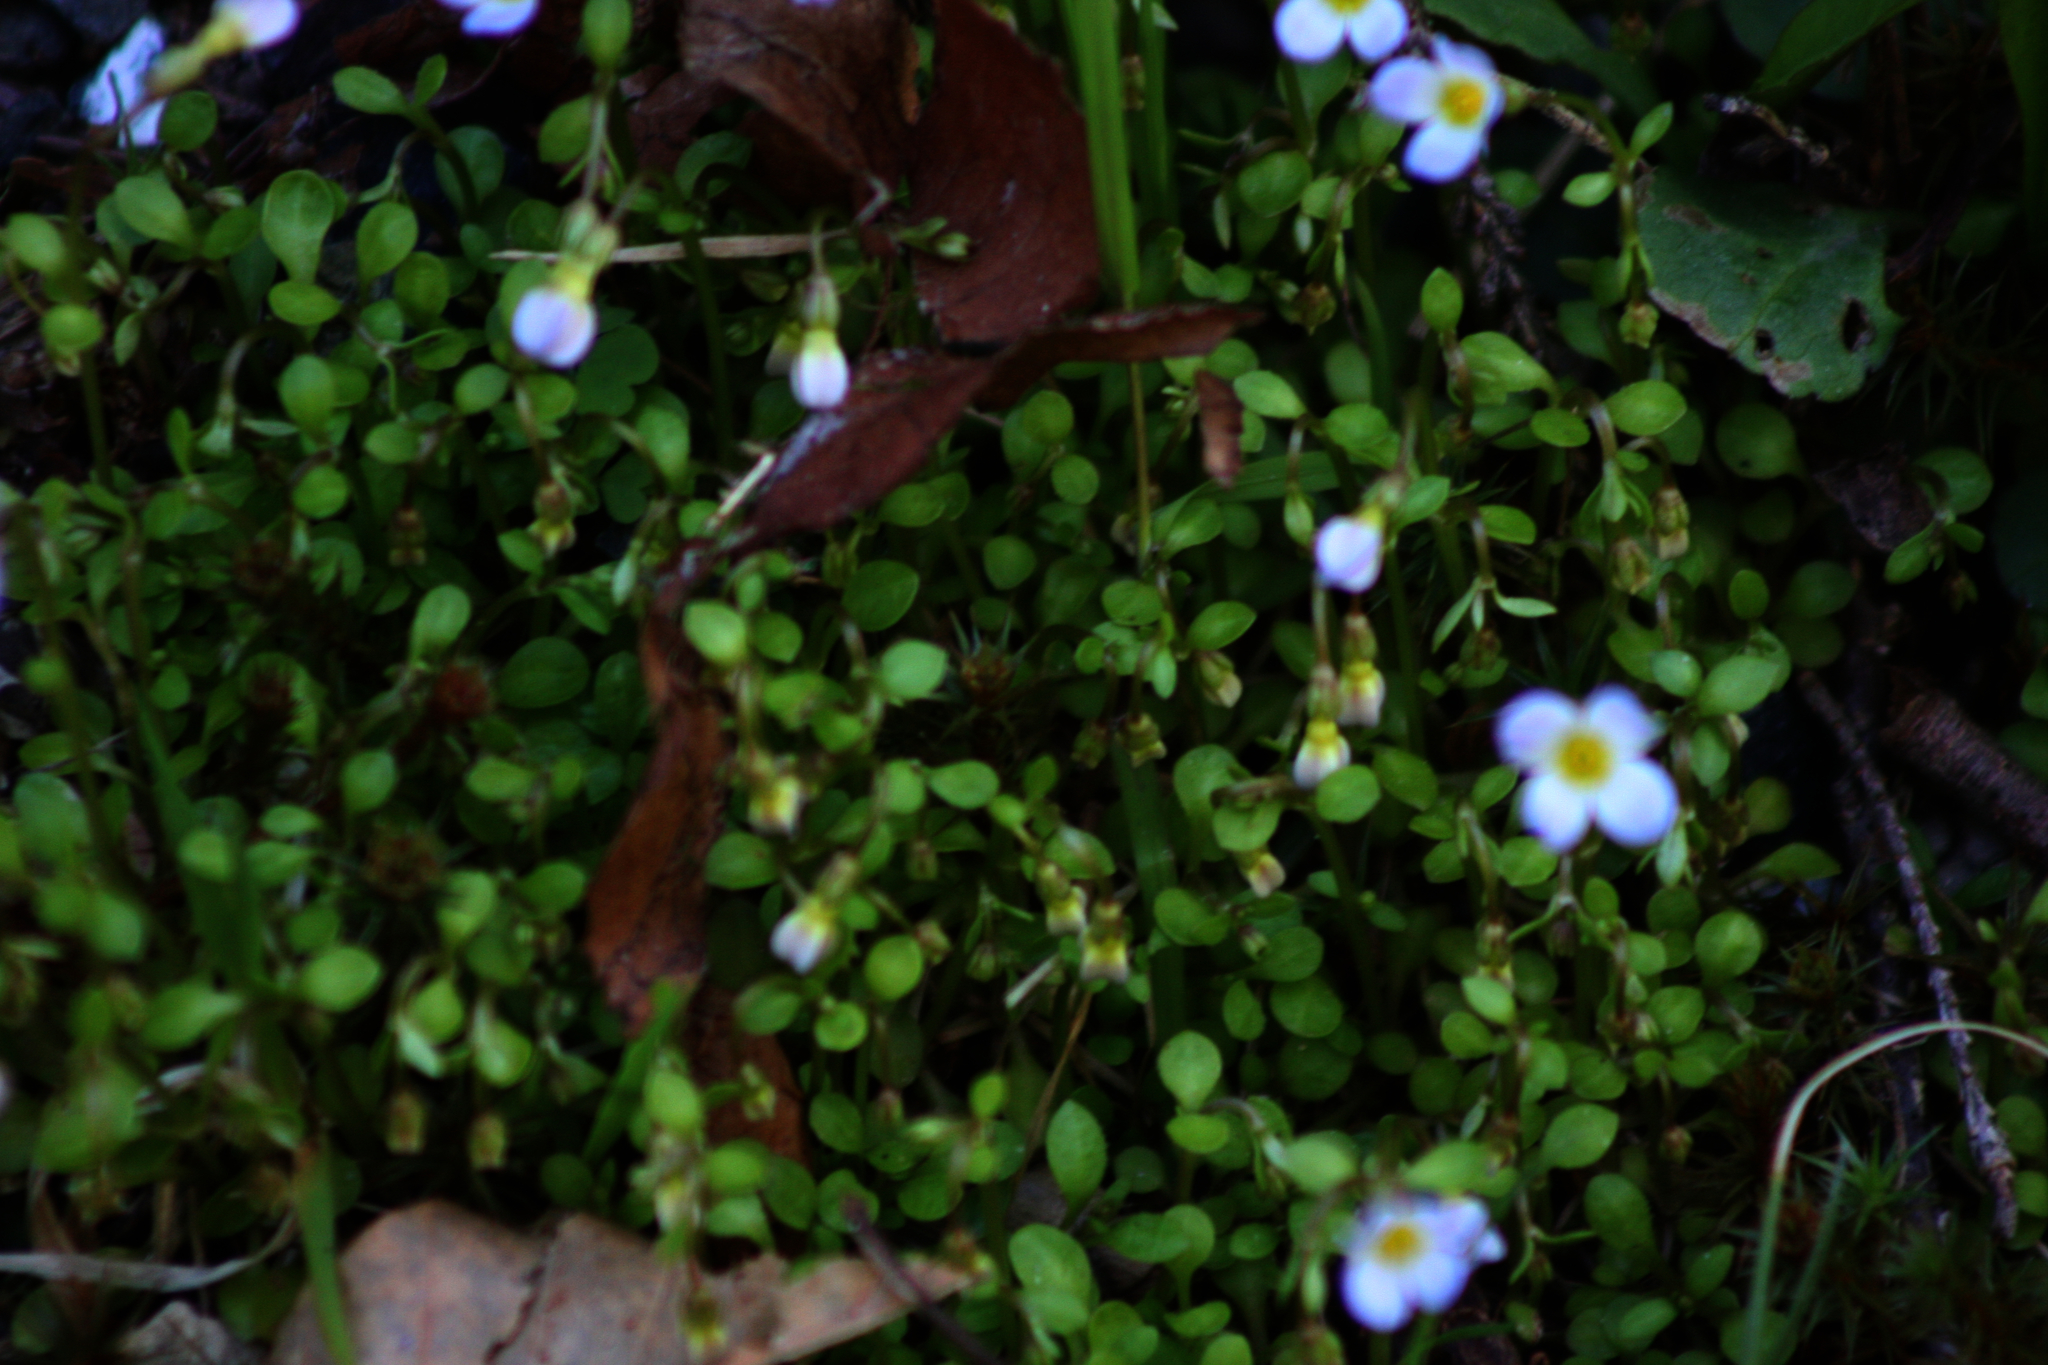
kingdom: Plantae
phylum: Tracheophyta
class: Magnoliopsida
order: Gentianales
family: Rubiaceae
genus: Houstonia
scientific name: Houstonia caerulea
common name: Bluets
